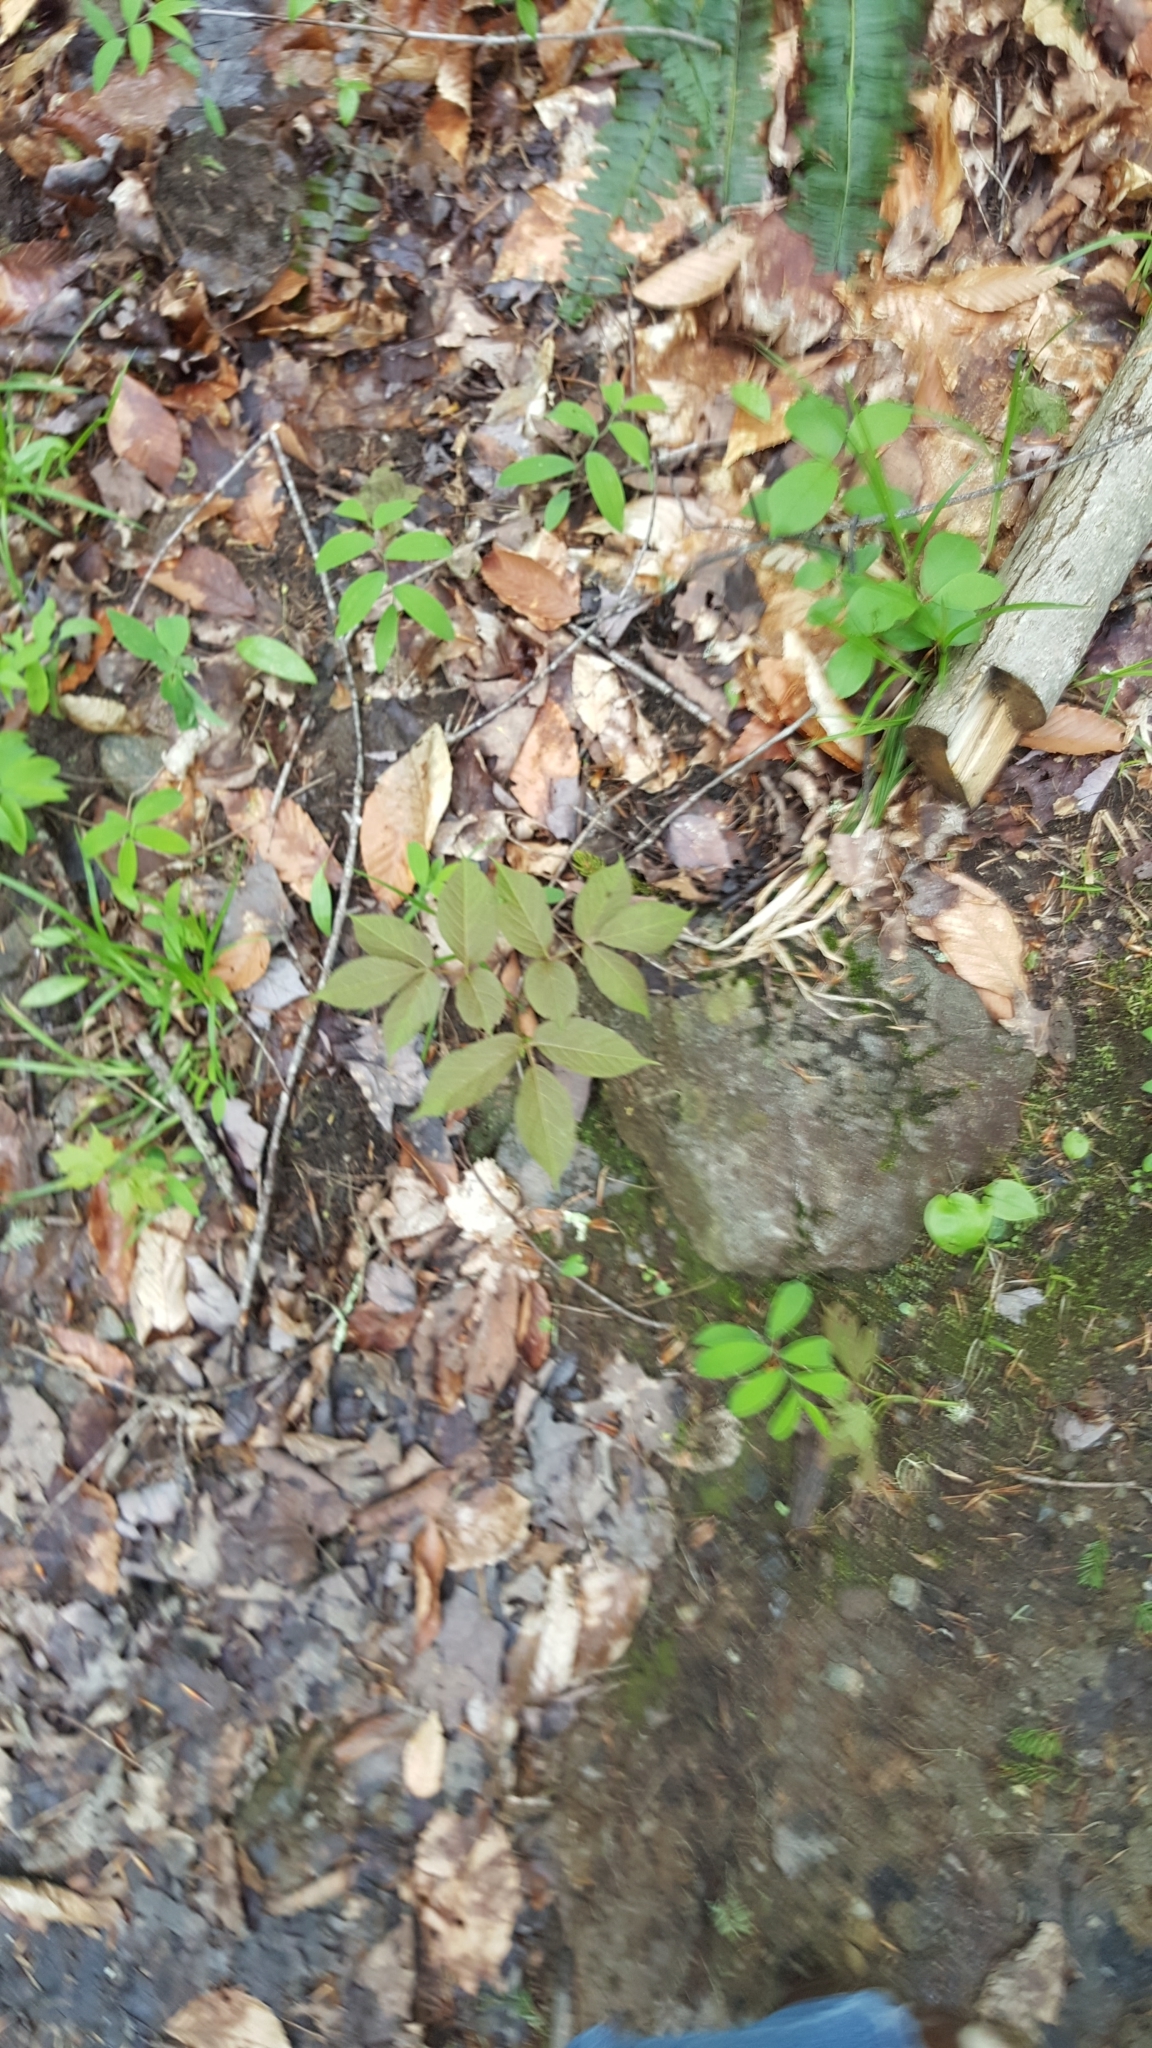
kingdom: Plantae
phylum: Tracheophyta
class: Magnoliopsida
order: Apiales
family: Araliaceae
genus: Aralia
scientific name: Aralia nudicaulis
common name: Wild sarsaparilla
